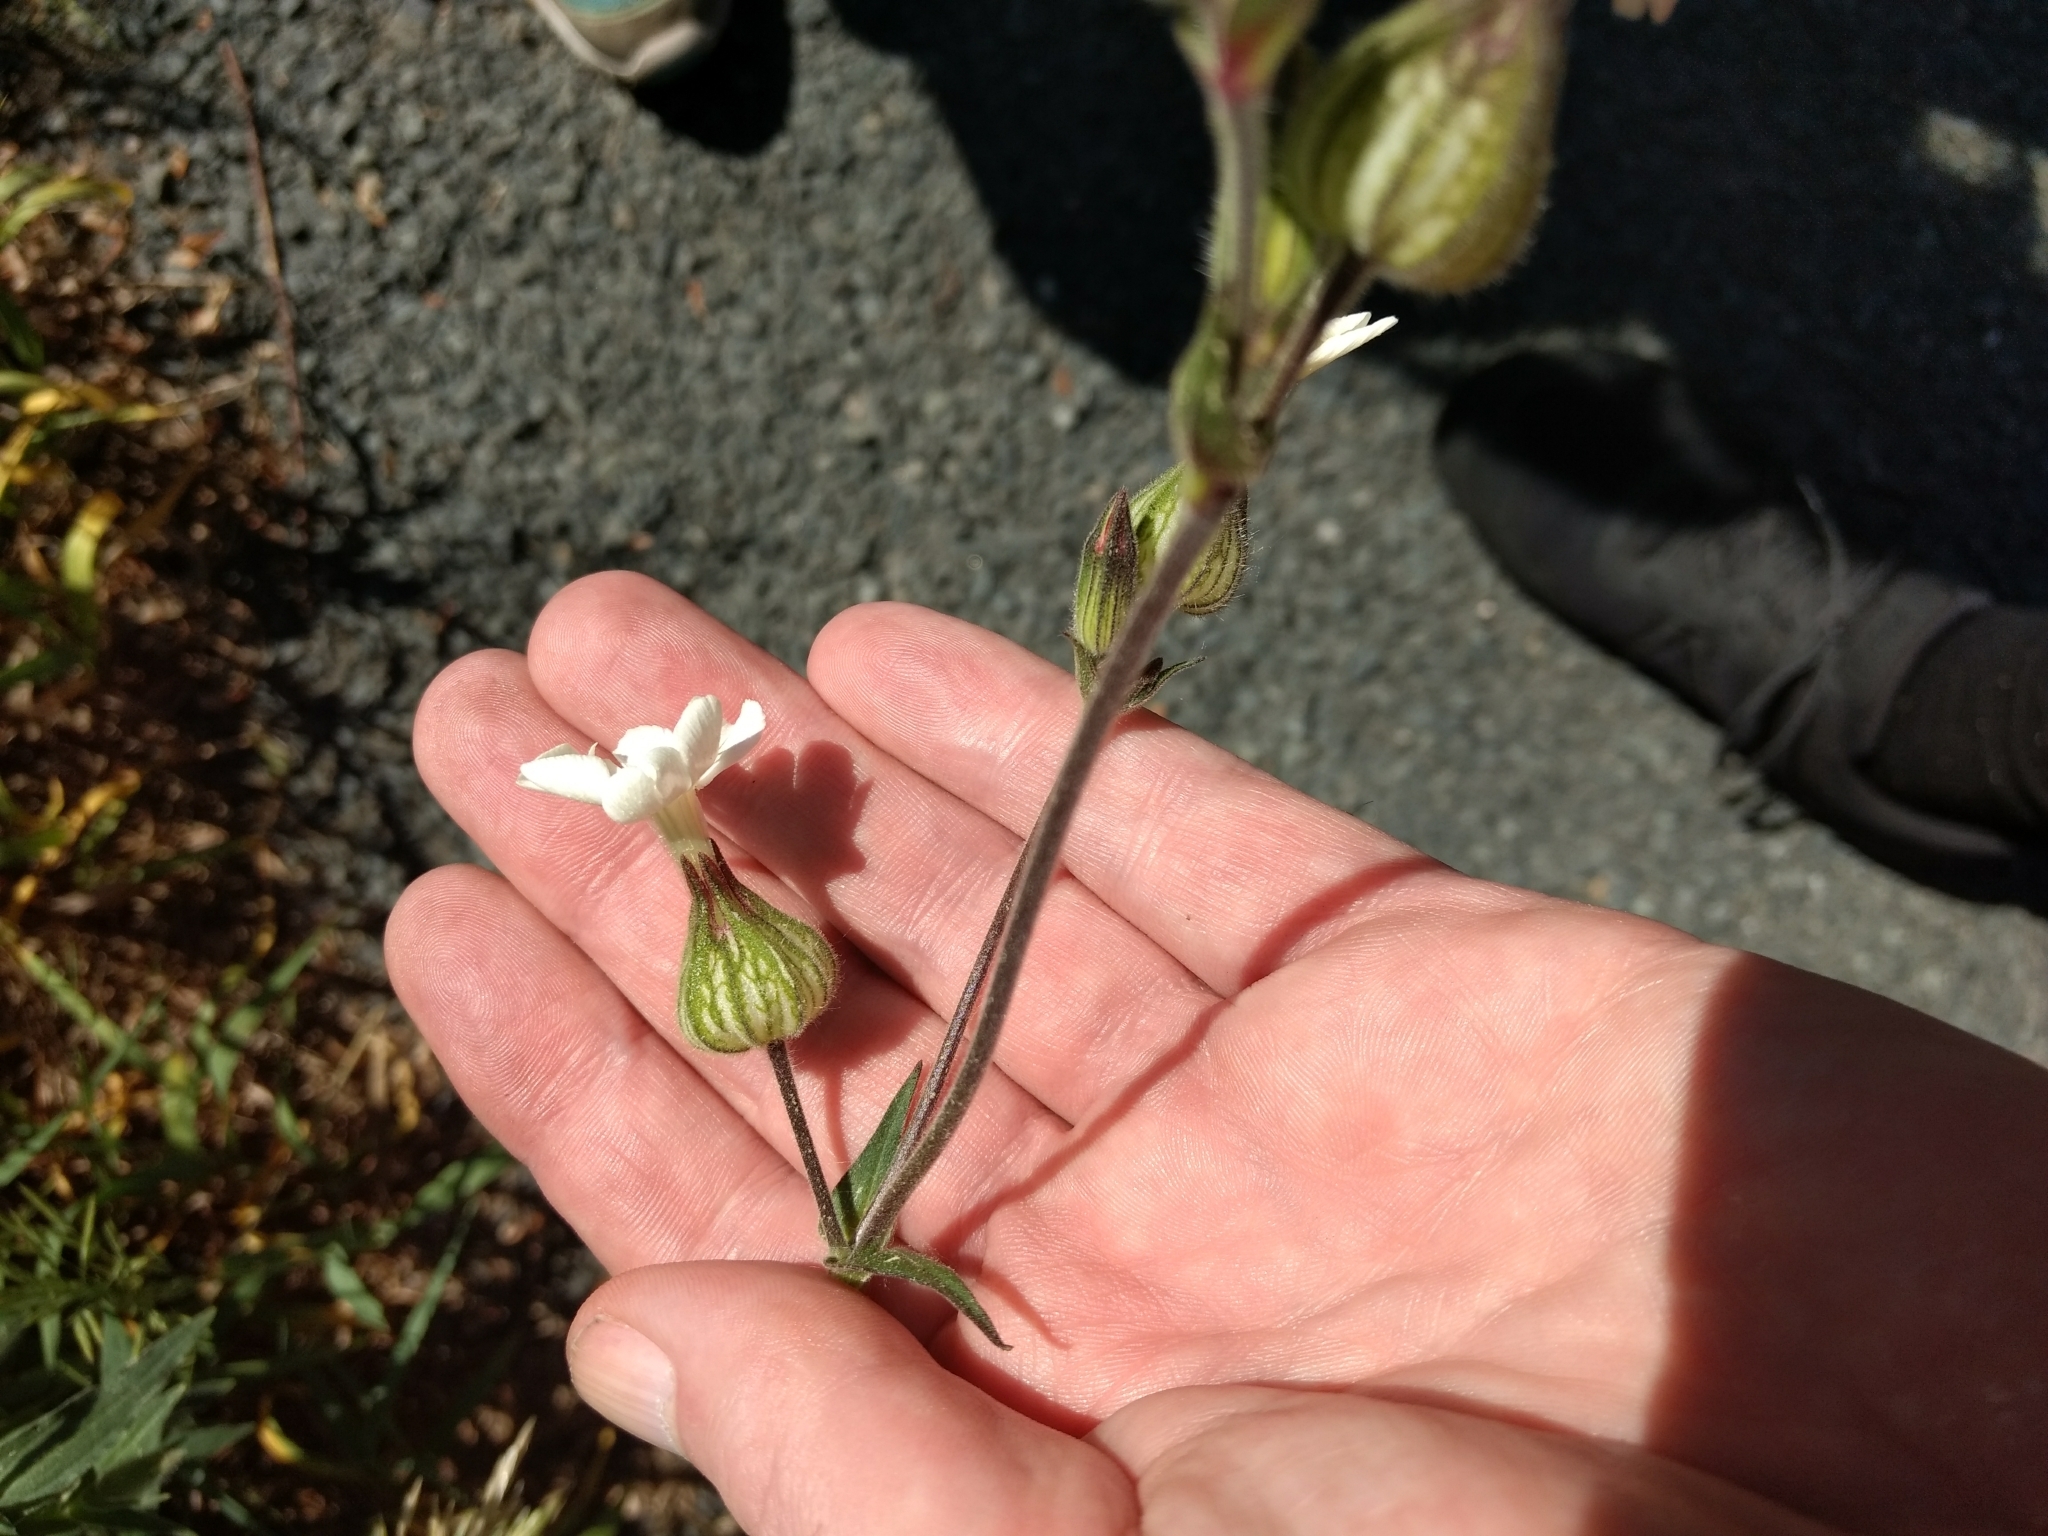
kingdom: Plantae
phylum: Tracheophyta
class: Magnoliopsida
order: Caryophyllales
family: Caryophyllaceae
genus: Silene
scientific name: Silene latifolia
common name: White campion
